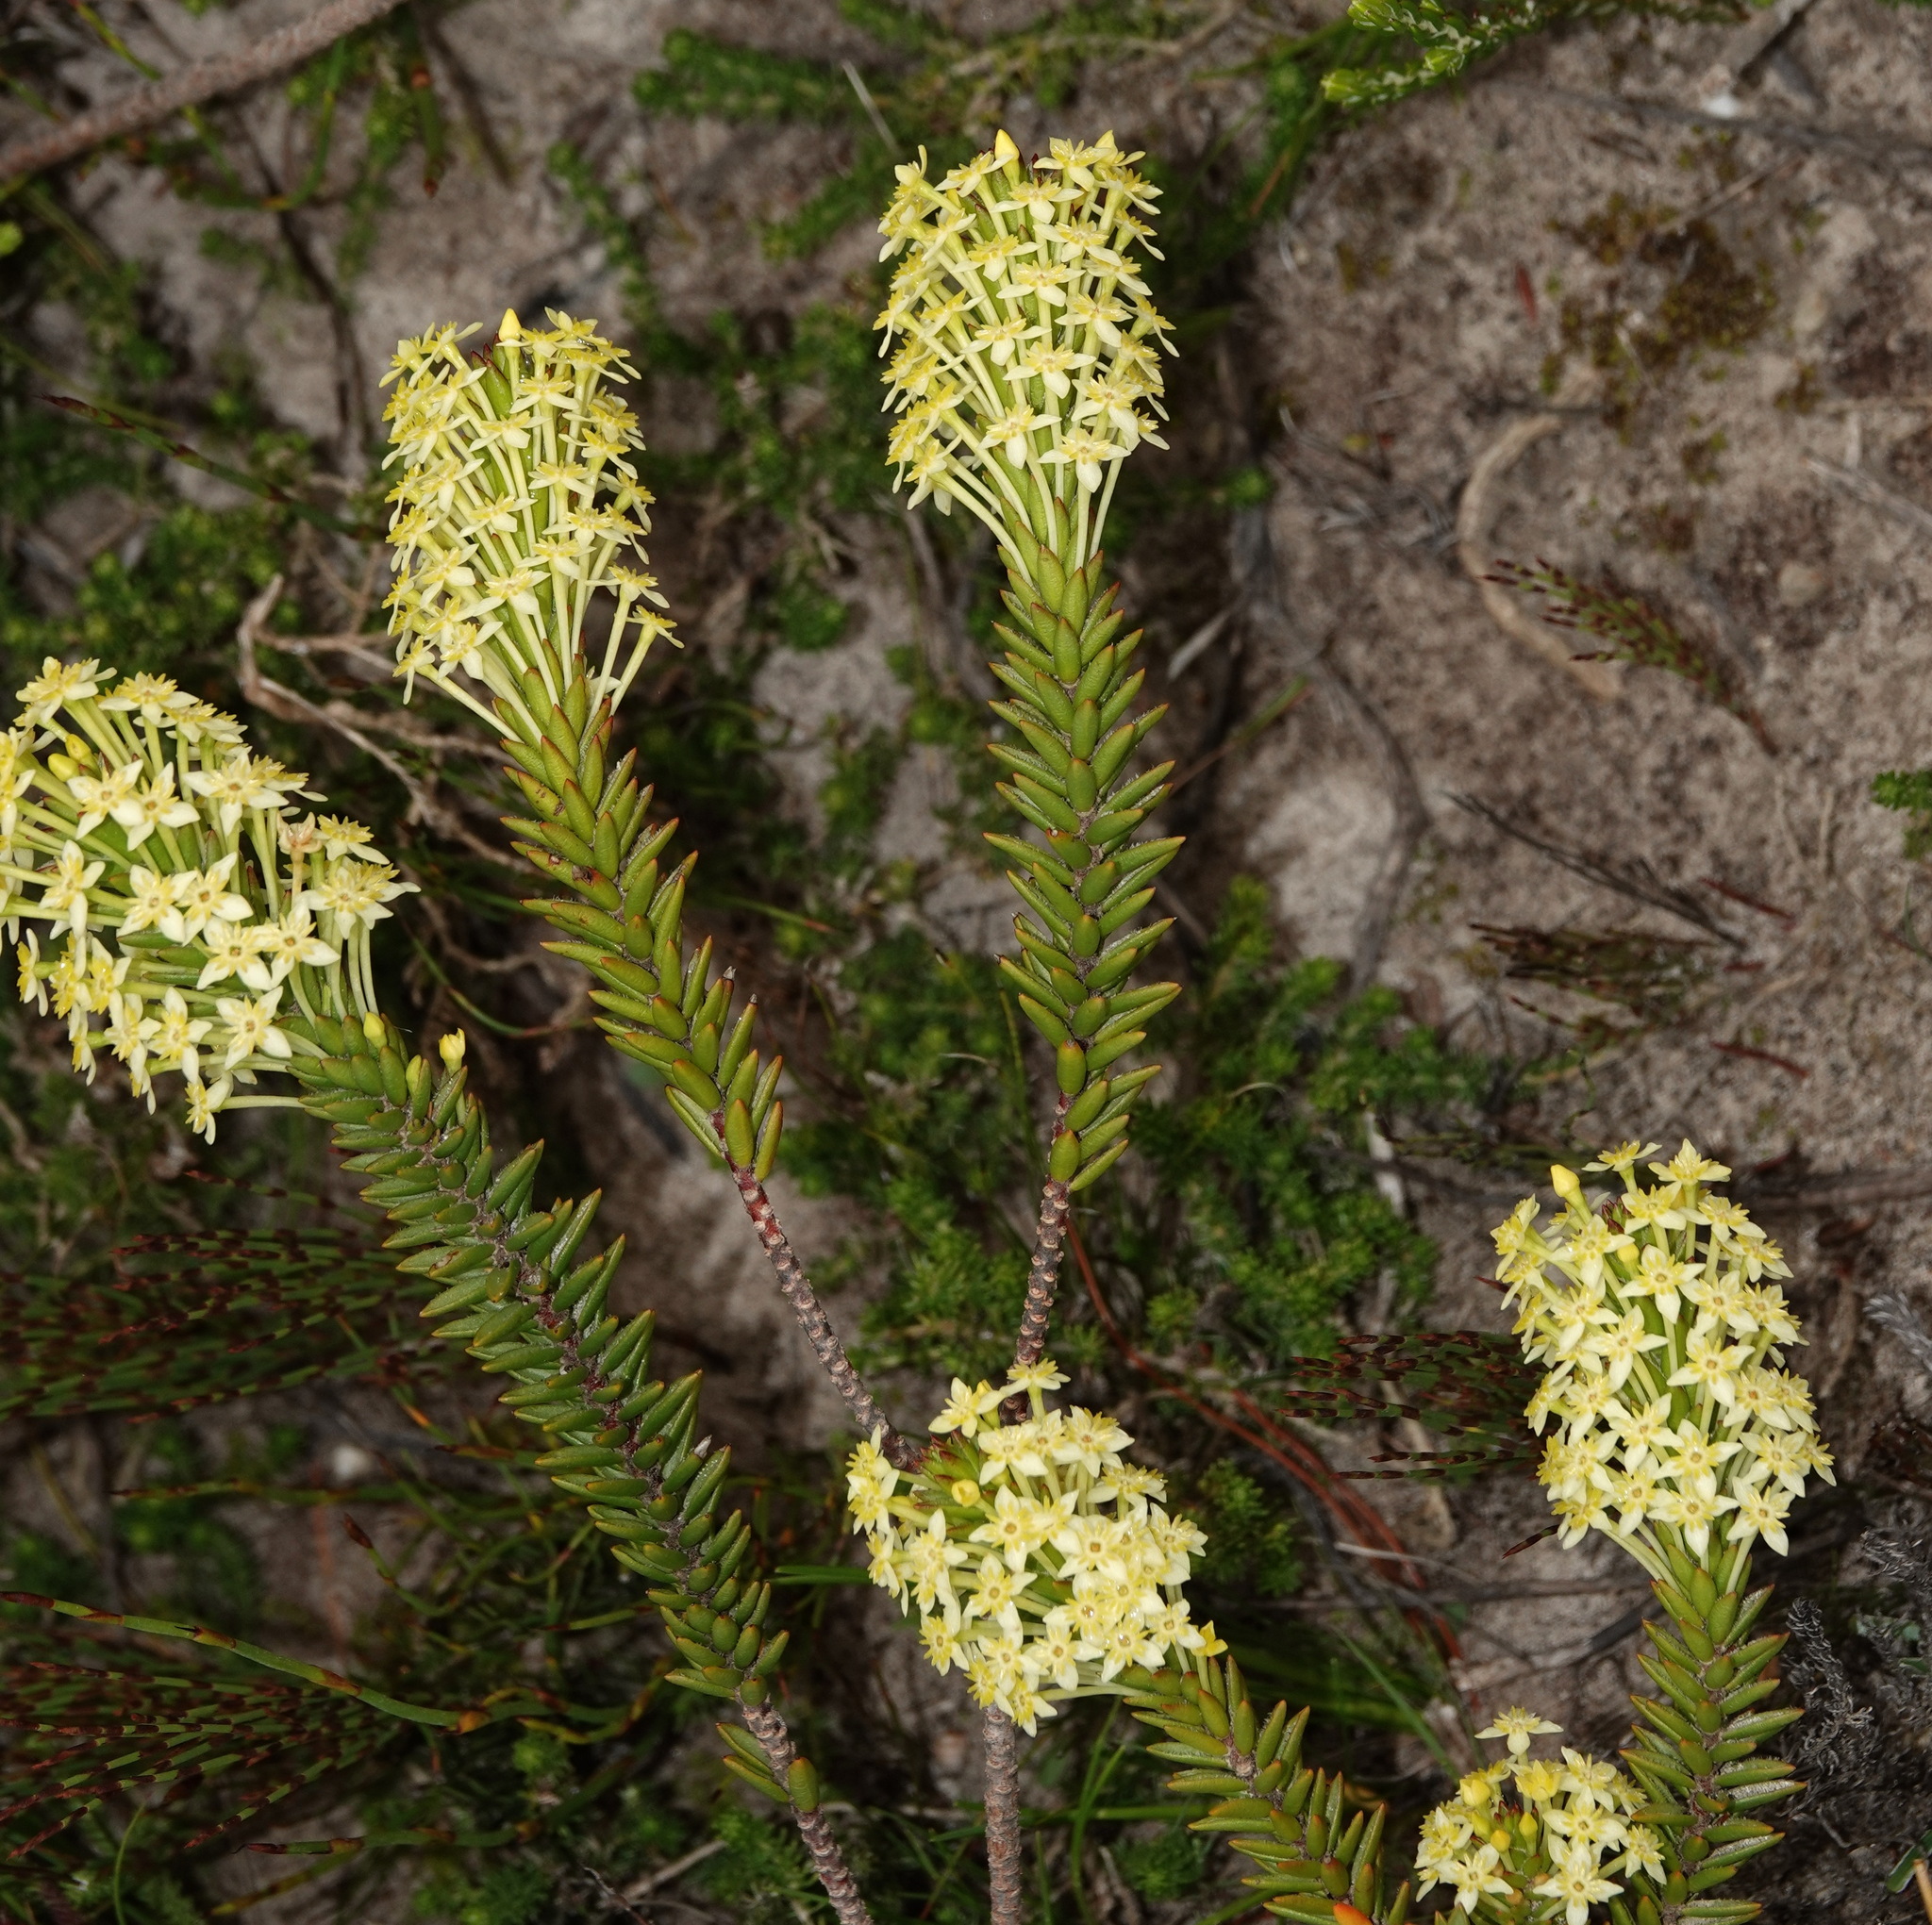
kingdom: Plantae
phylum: Tracheophyta
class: Magnoliopsida
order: Malvales
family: Thymelaeaceae
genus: Struthiola
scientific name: Struthiola rigida
